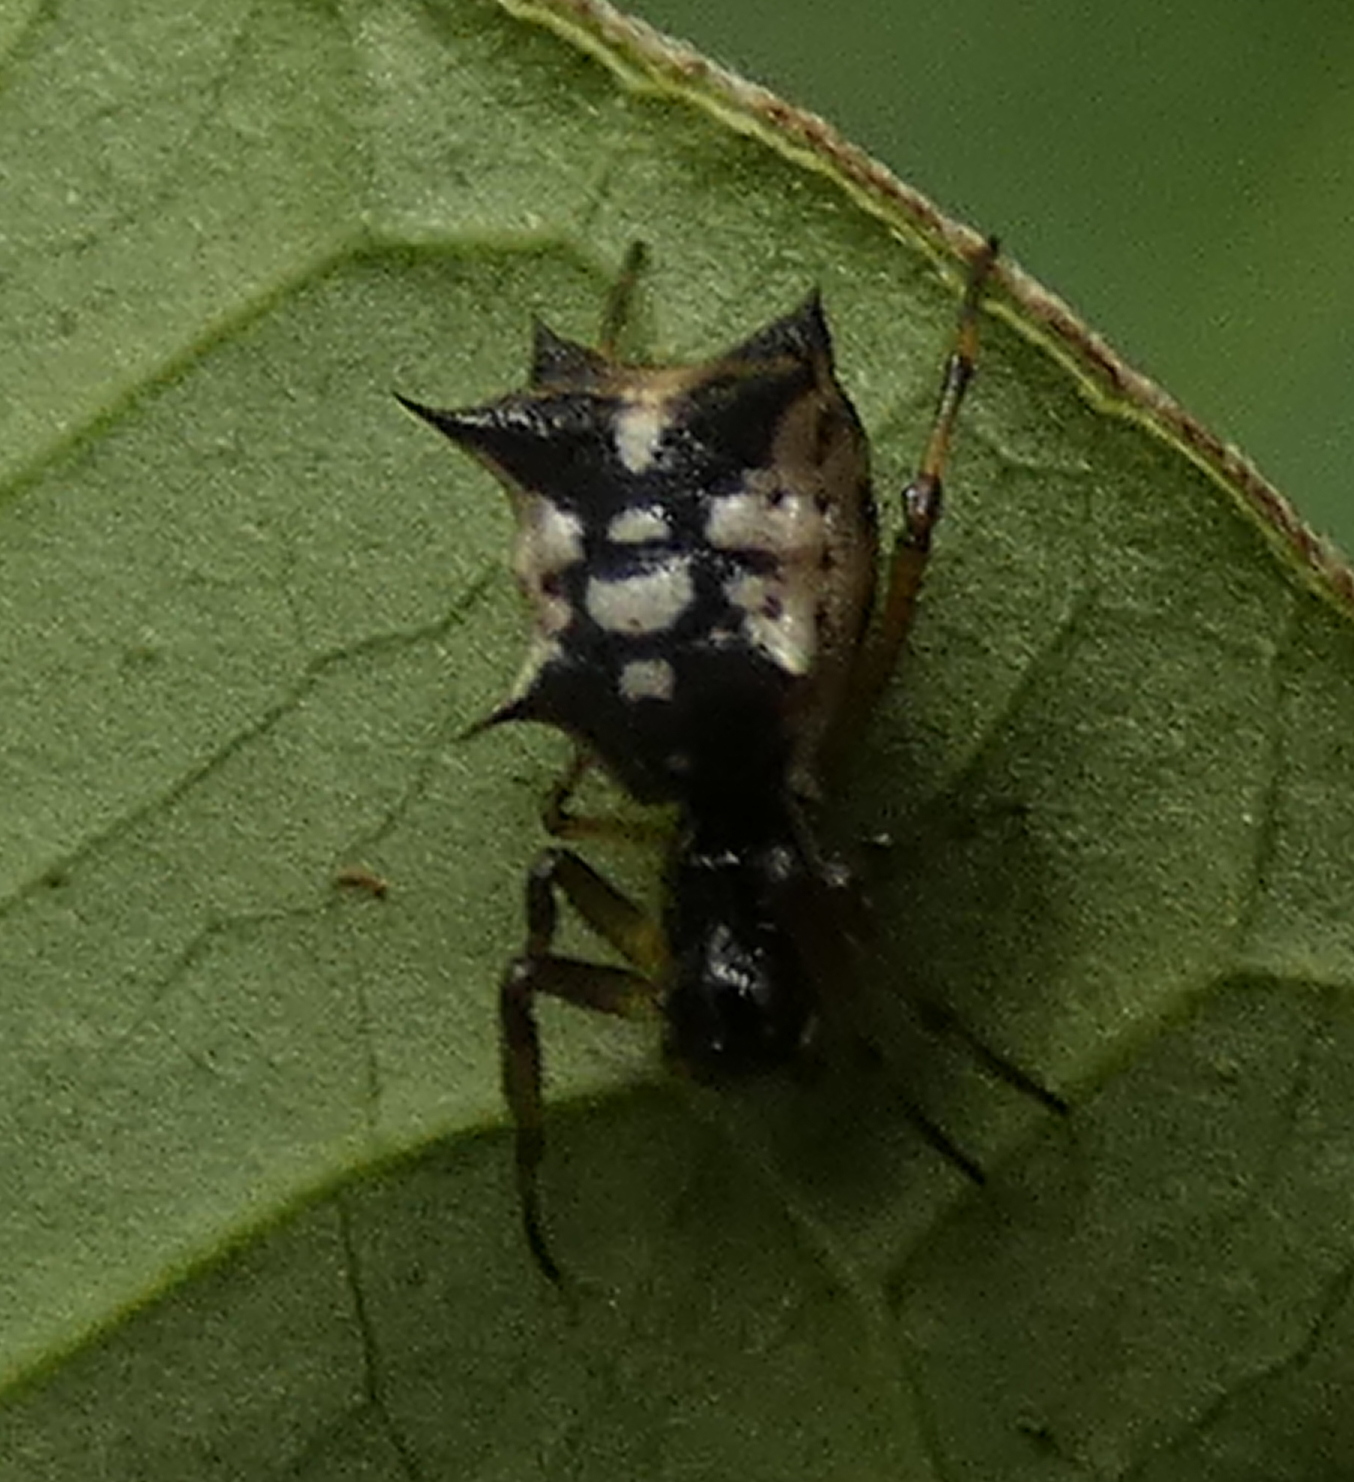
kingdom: Animalia
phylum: Arthropoda
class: Arachnida
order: Araneae
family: Araneidae
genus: Micrathena
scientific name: Micrathena picta
